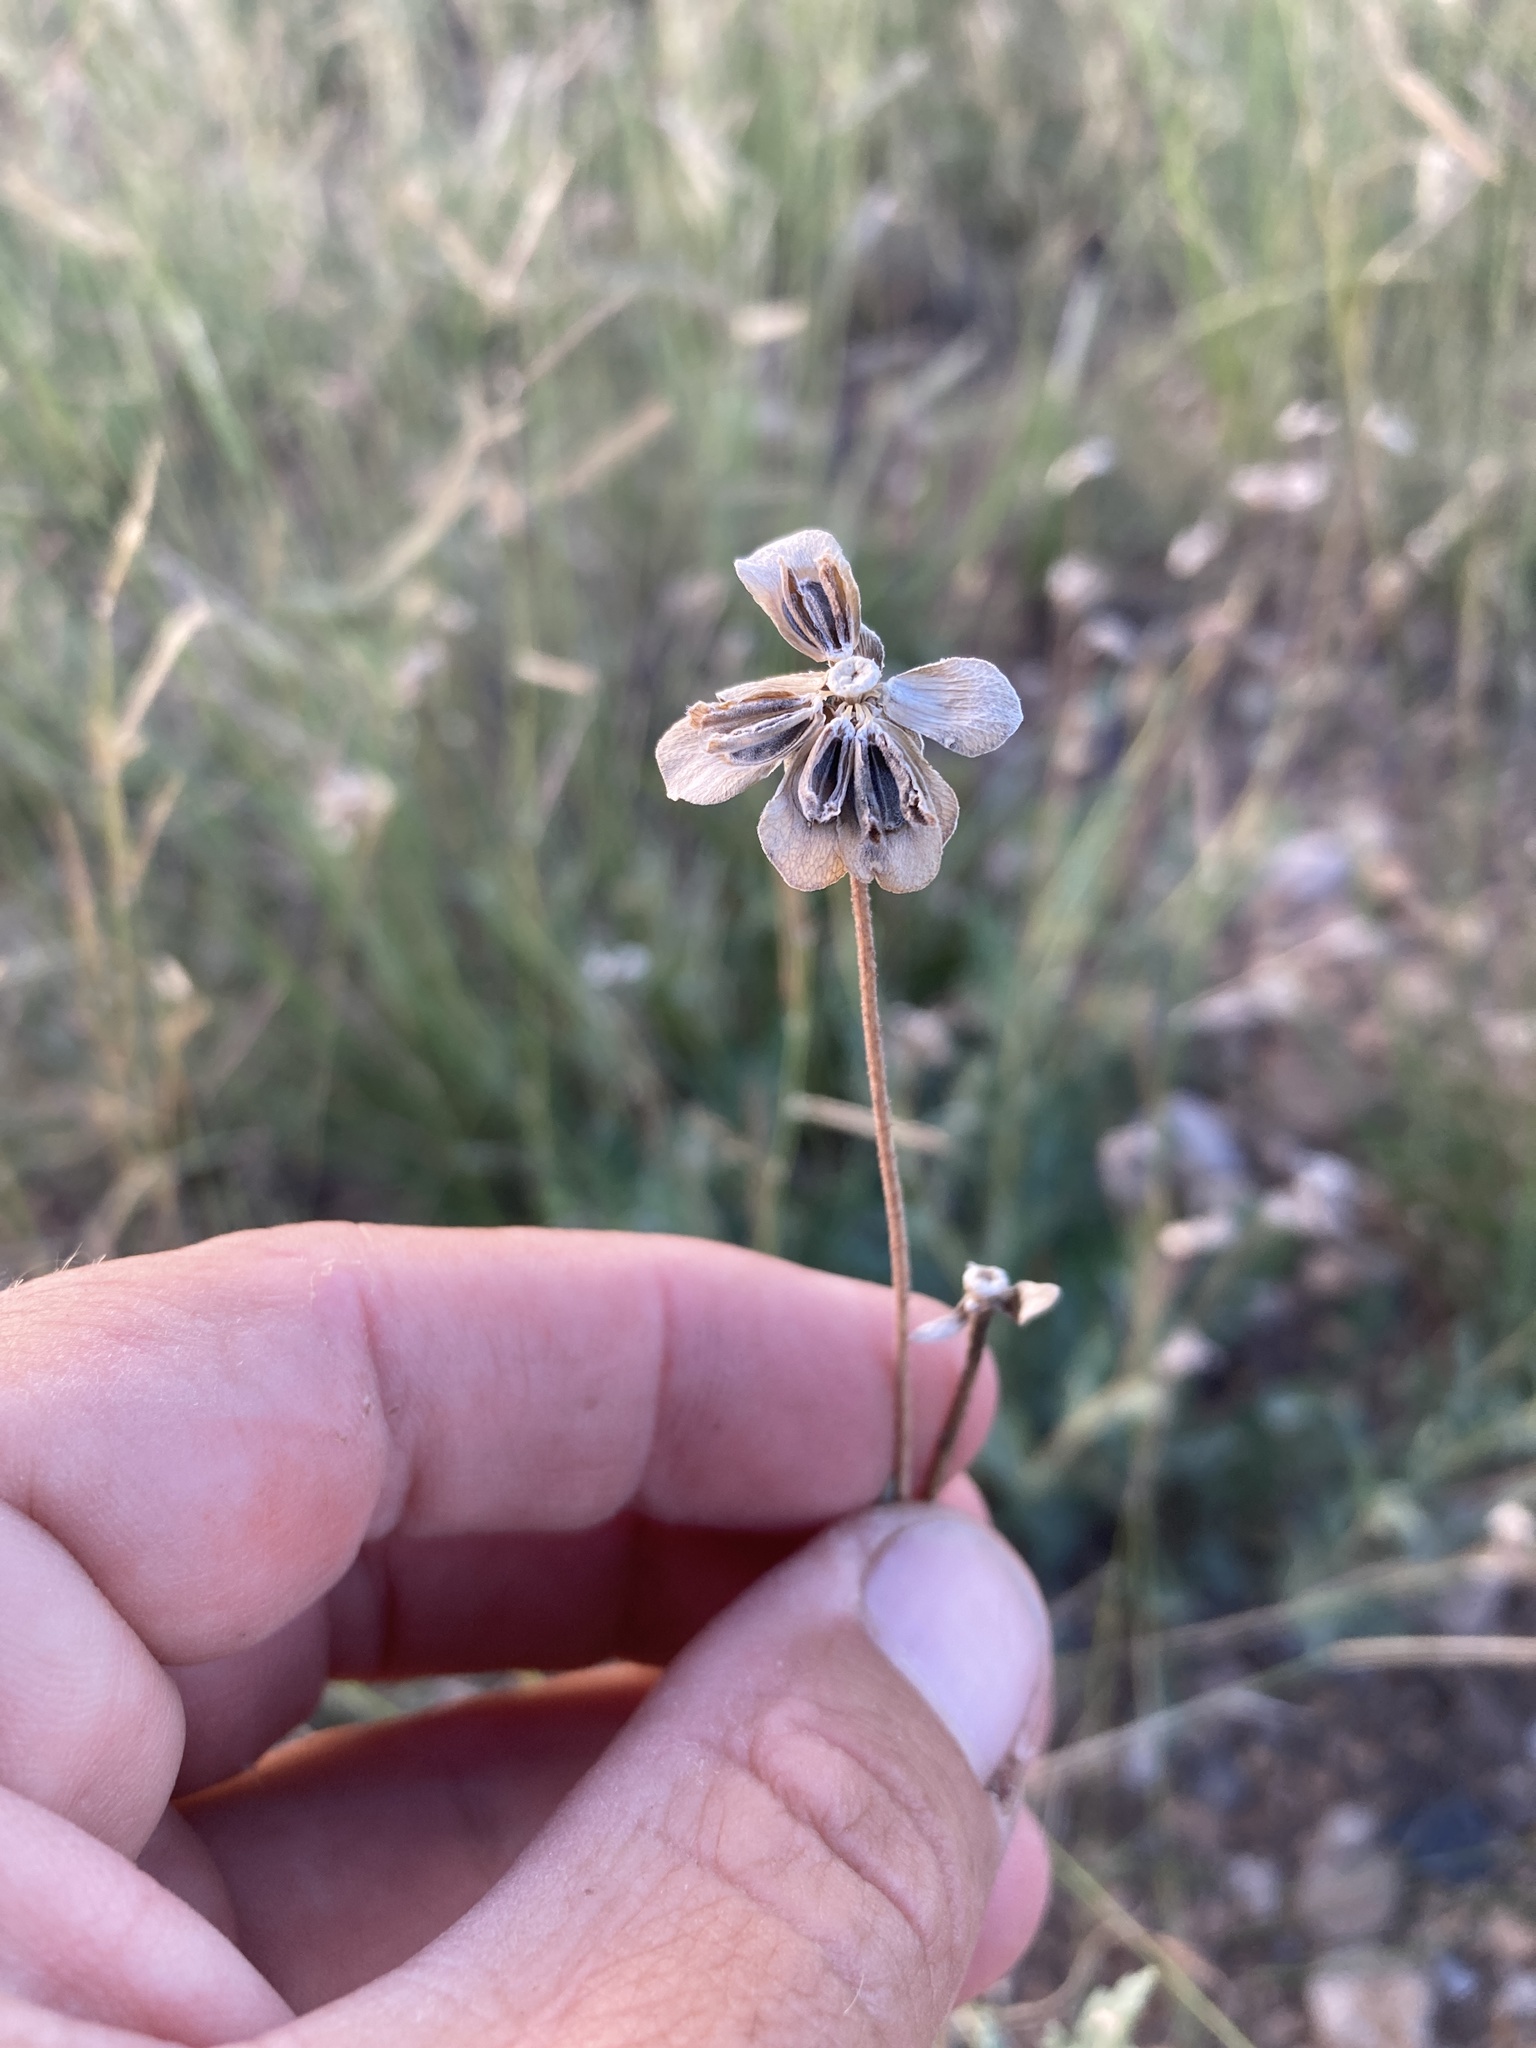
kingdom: Plantae
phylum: Tracheophyta
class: Magnoliopsida
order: Asterales
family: Asteraceae
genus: Berlandiera
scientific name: Berlandiera lyrata
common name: Chocolate-flower
